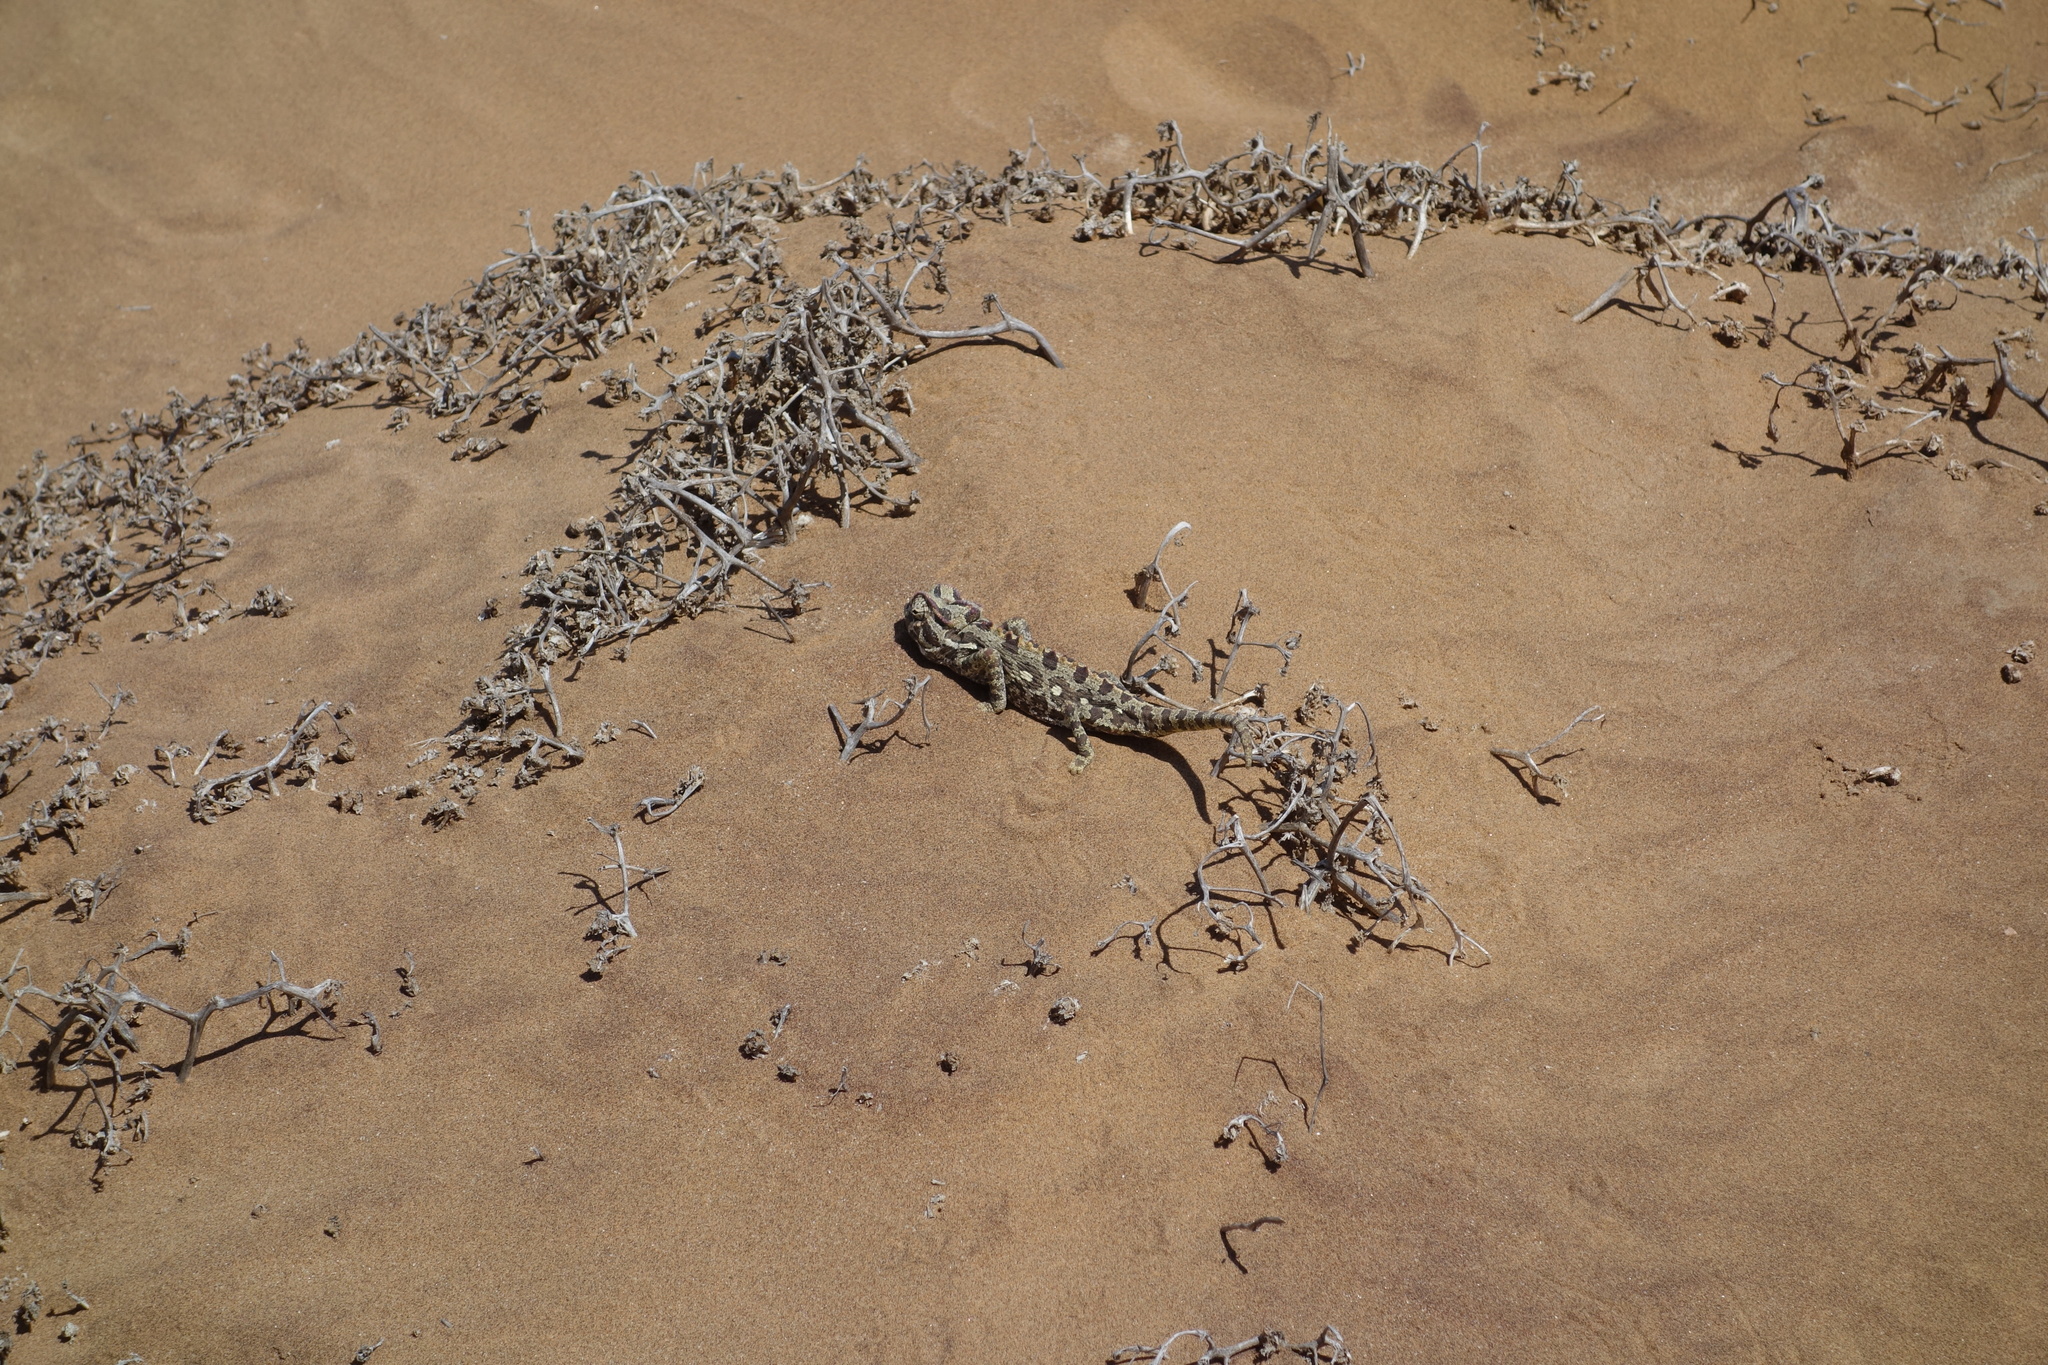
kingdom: Animalia
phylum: Chordata
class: Squamata
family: Chamaeleonidae
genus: Chamaeleo
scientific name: Chamaeleo namaquensis
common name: Namaqua chameleon
